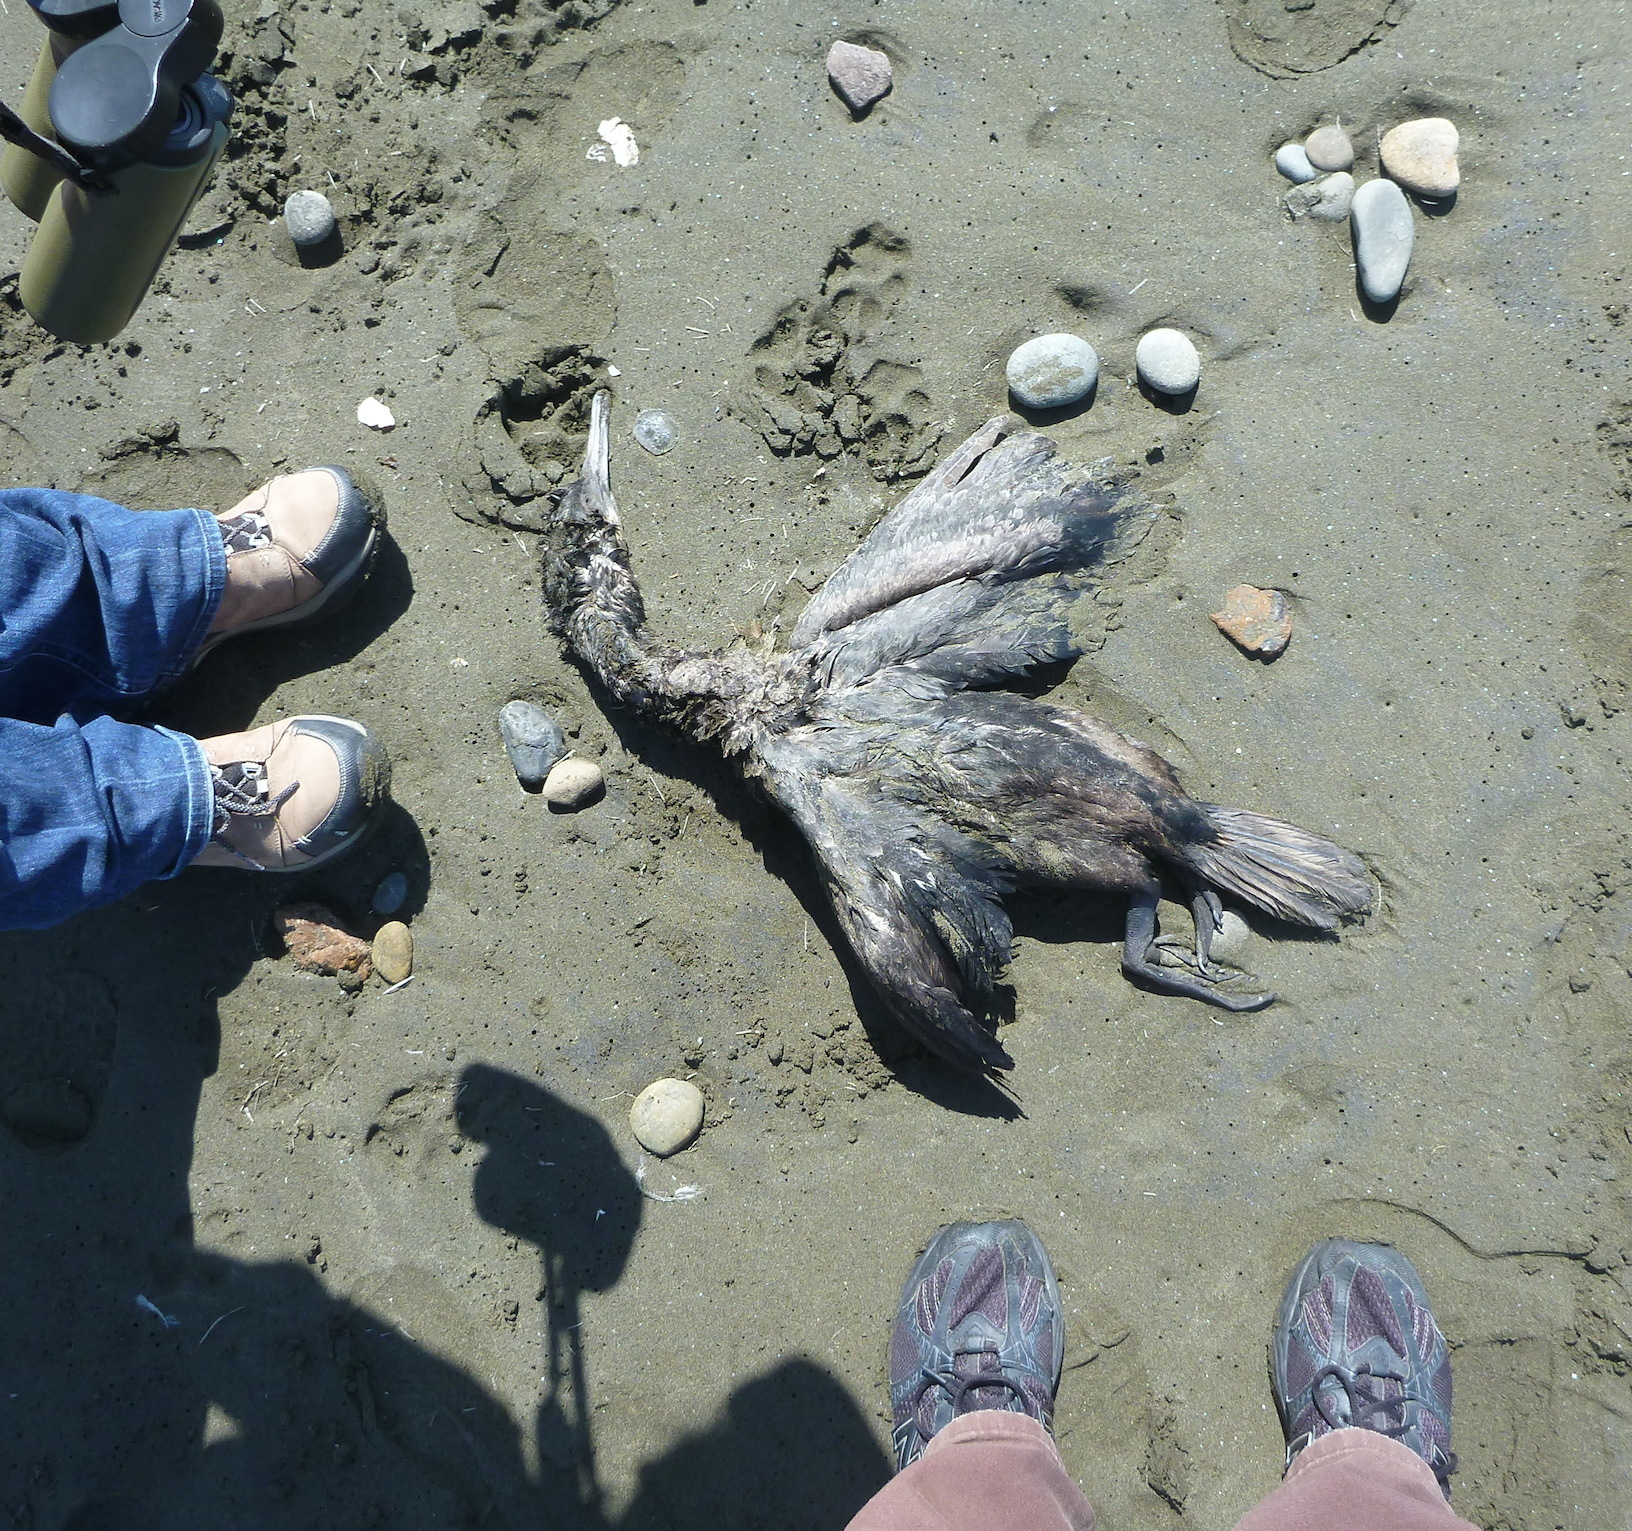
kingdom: Animalia
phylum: Chordata
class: Aves
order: Suliformes
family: Phalacrocoracidae
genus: Urile
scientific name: Urile penicillatus
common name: Brandt's cormorant
